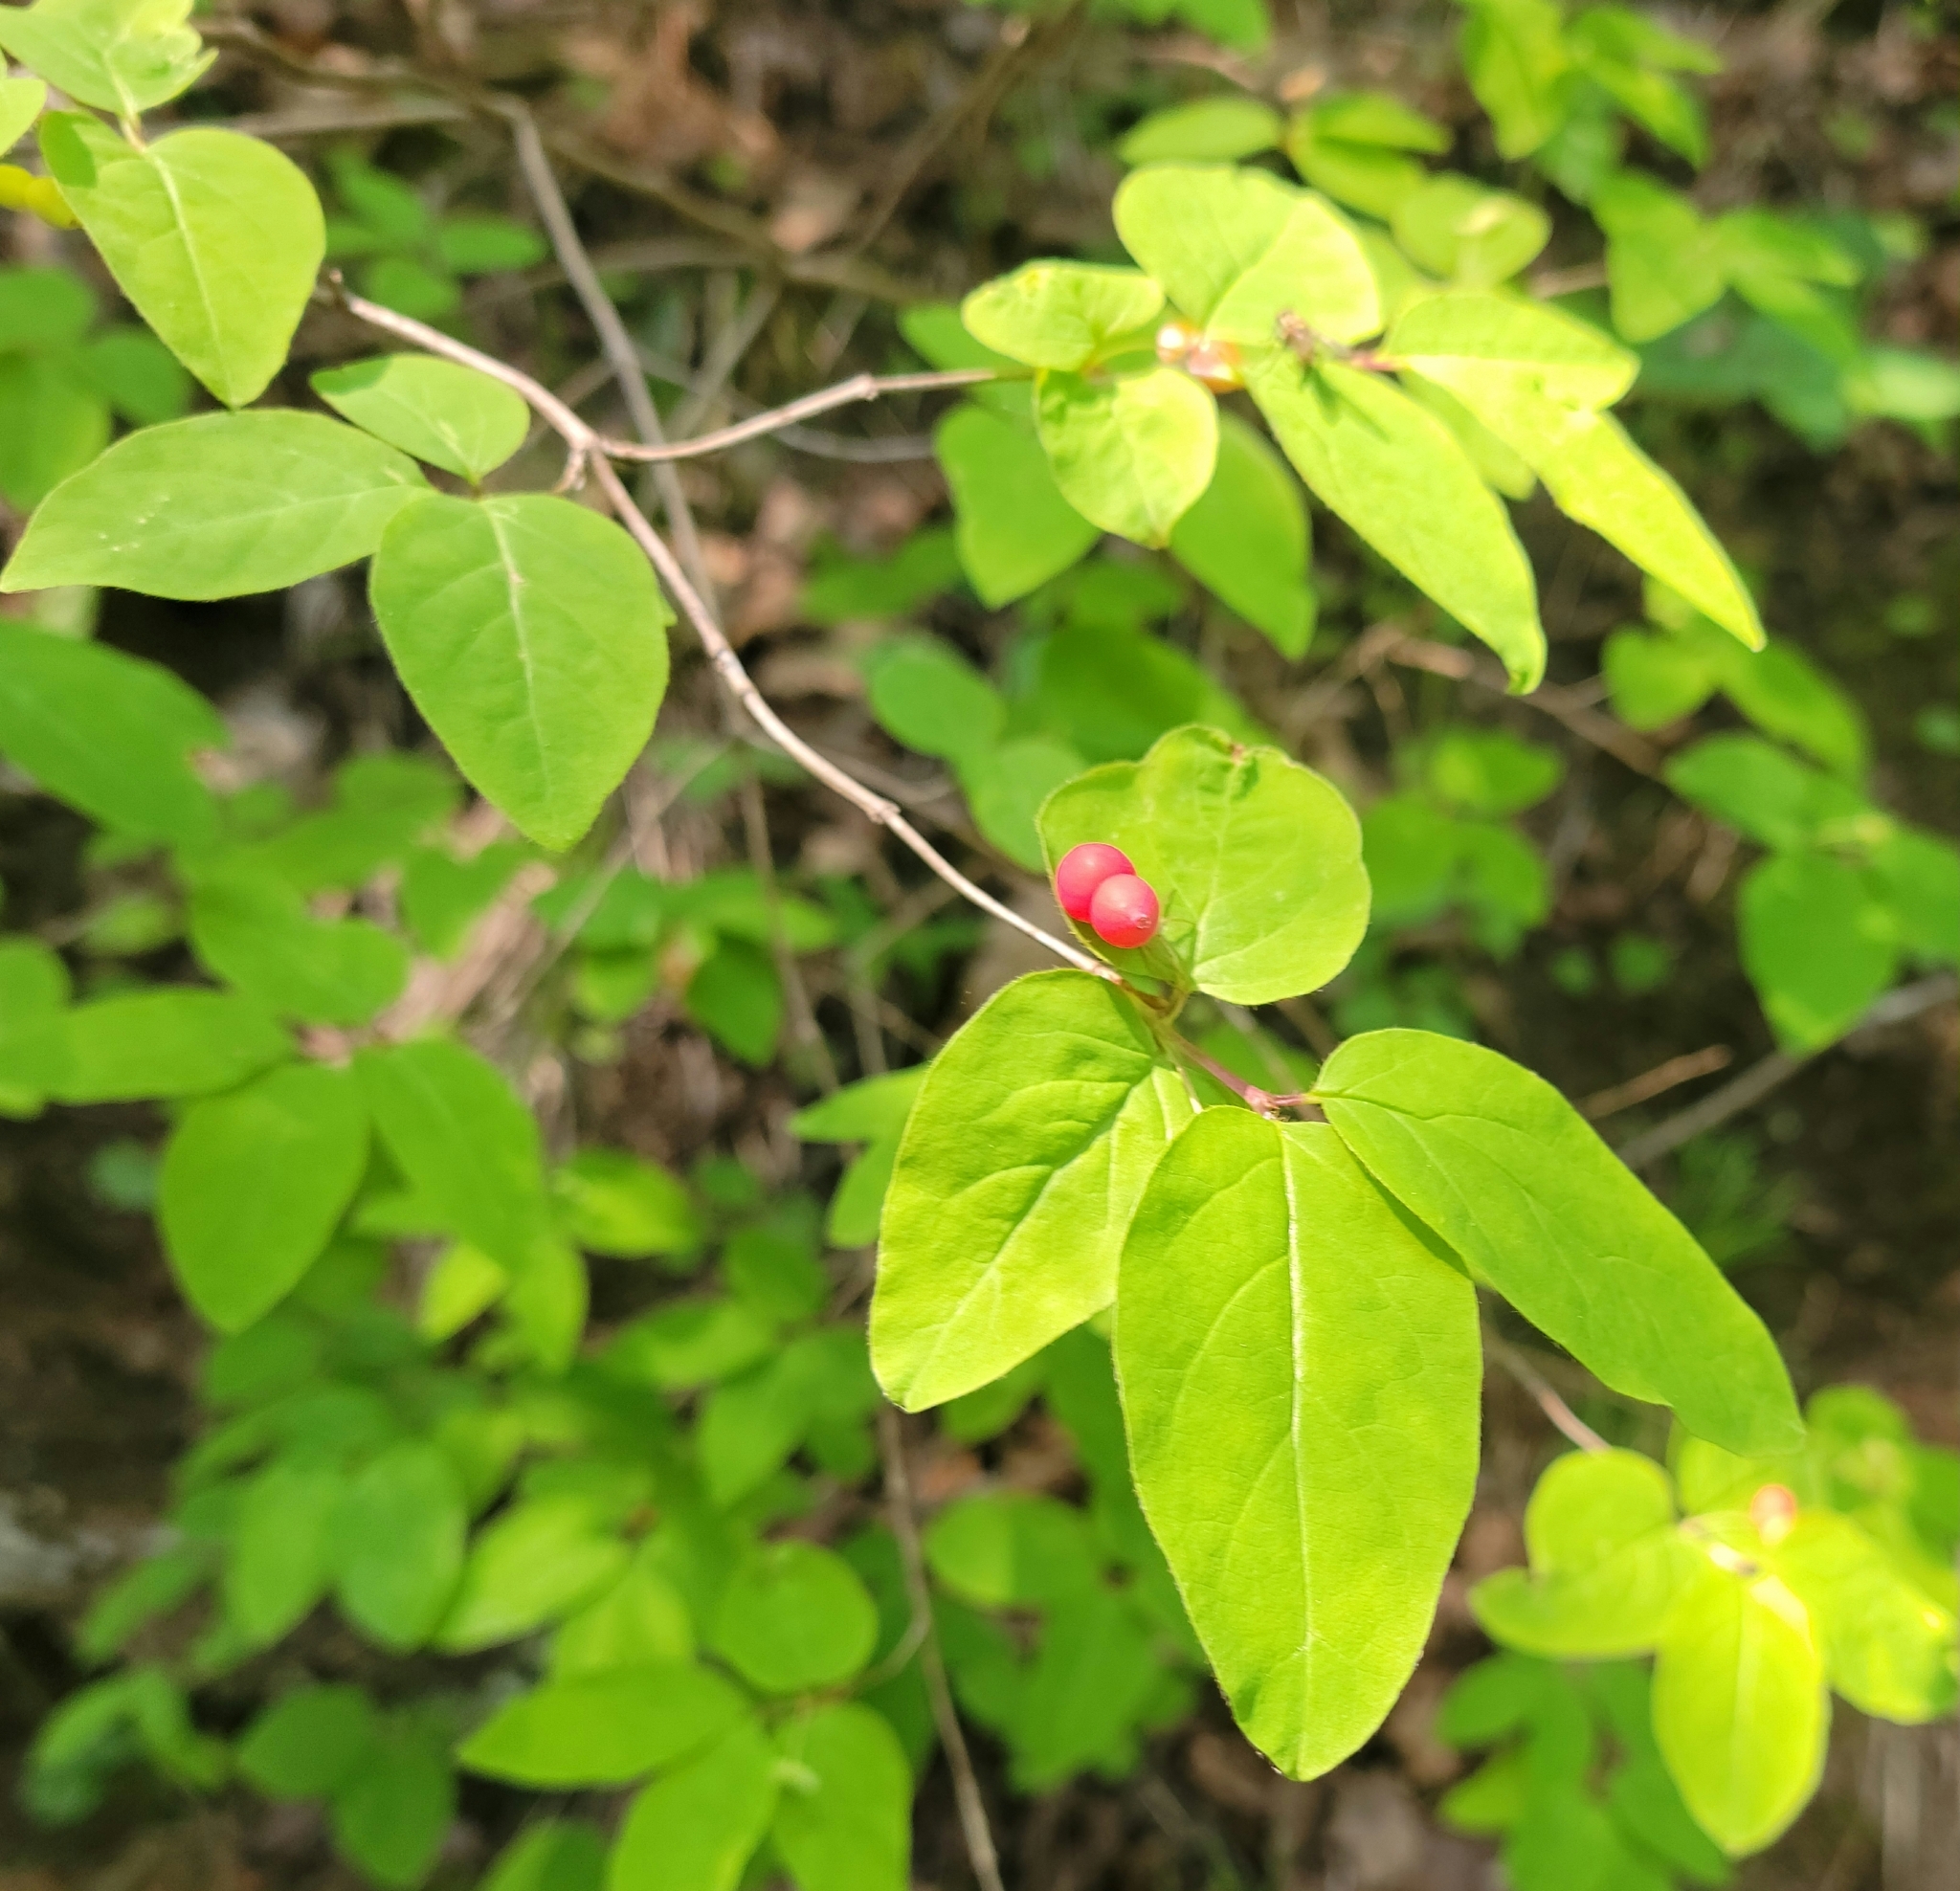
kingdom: Plantae
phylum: Tracheophyta
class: Magnoliopsida
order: Dipsacales
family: Caprifoliaceae
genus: Lonicera
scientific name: Lonicera canadensis
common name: American fly-honeysuckle
